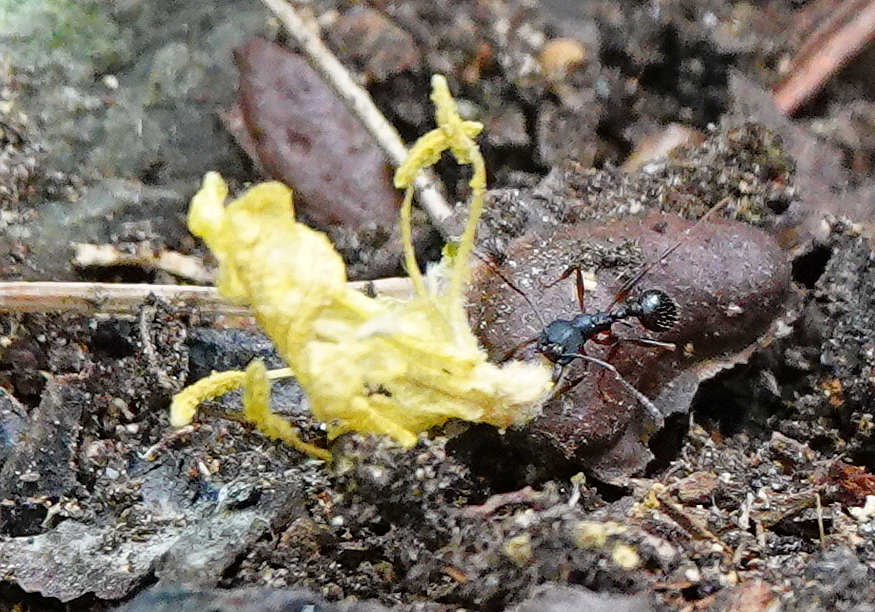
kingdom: Animalia
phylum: Arthropoda
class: Insecta
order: Hymenoptera
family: Formicidae
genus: Aphaenogaster
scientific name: Aphaenogaster picea
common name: Pitch-black collared ant
